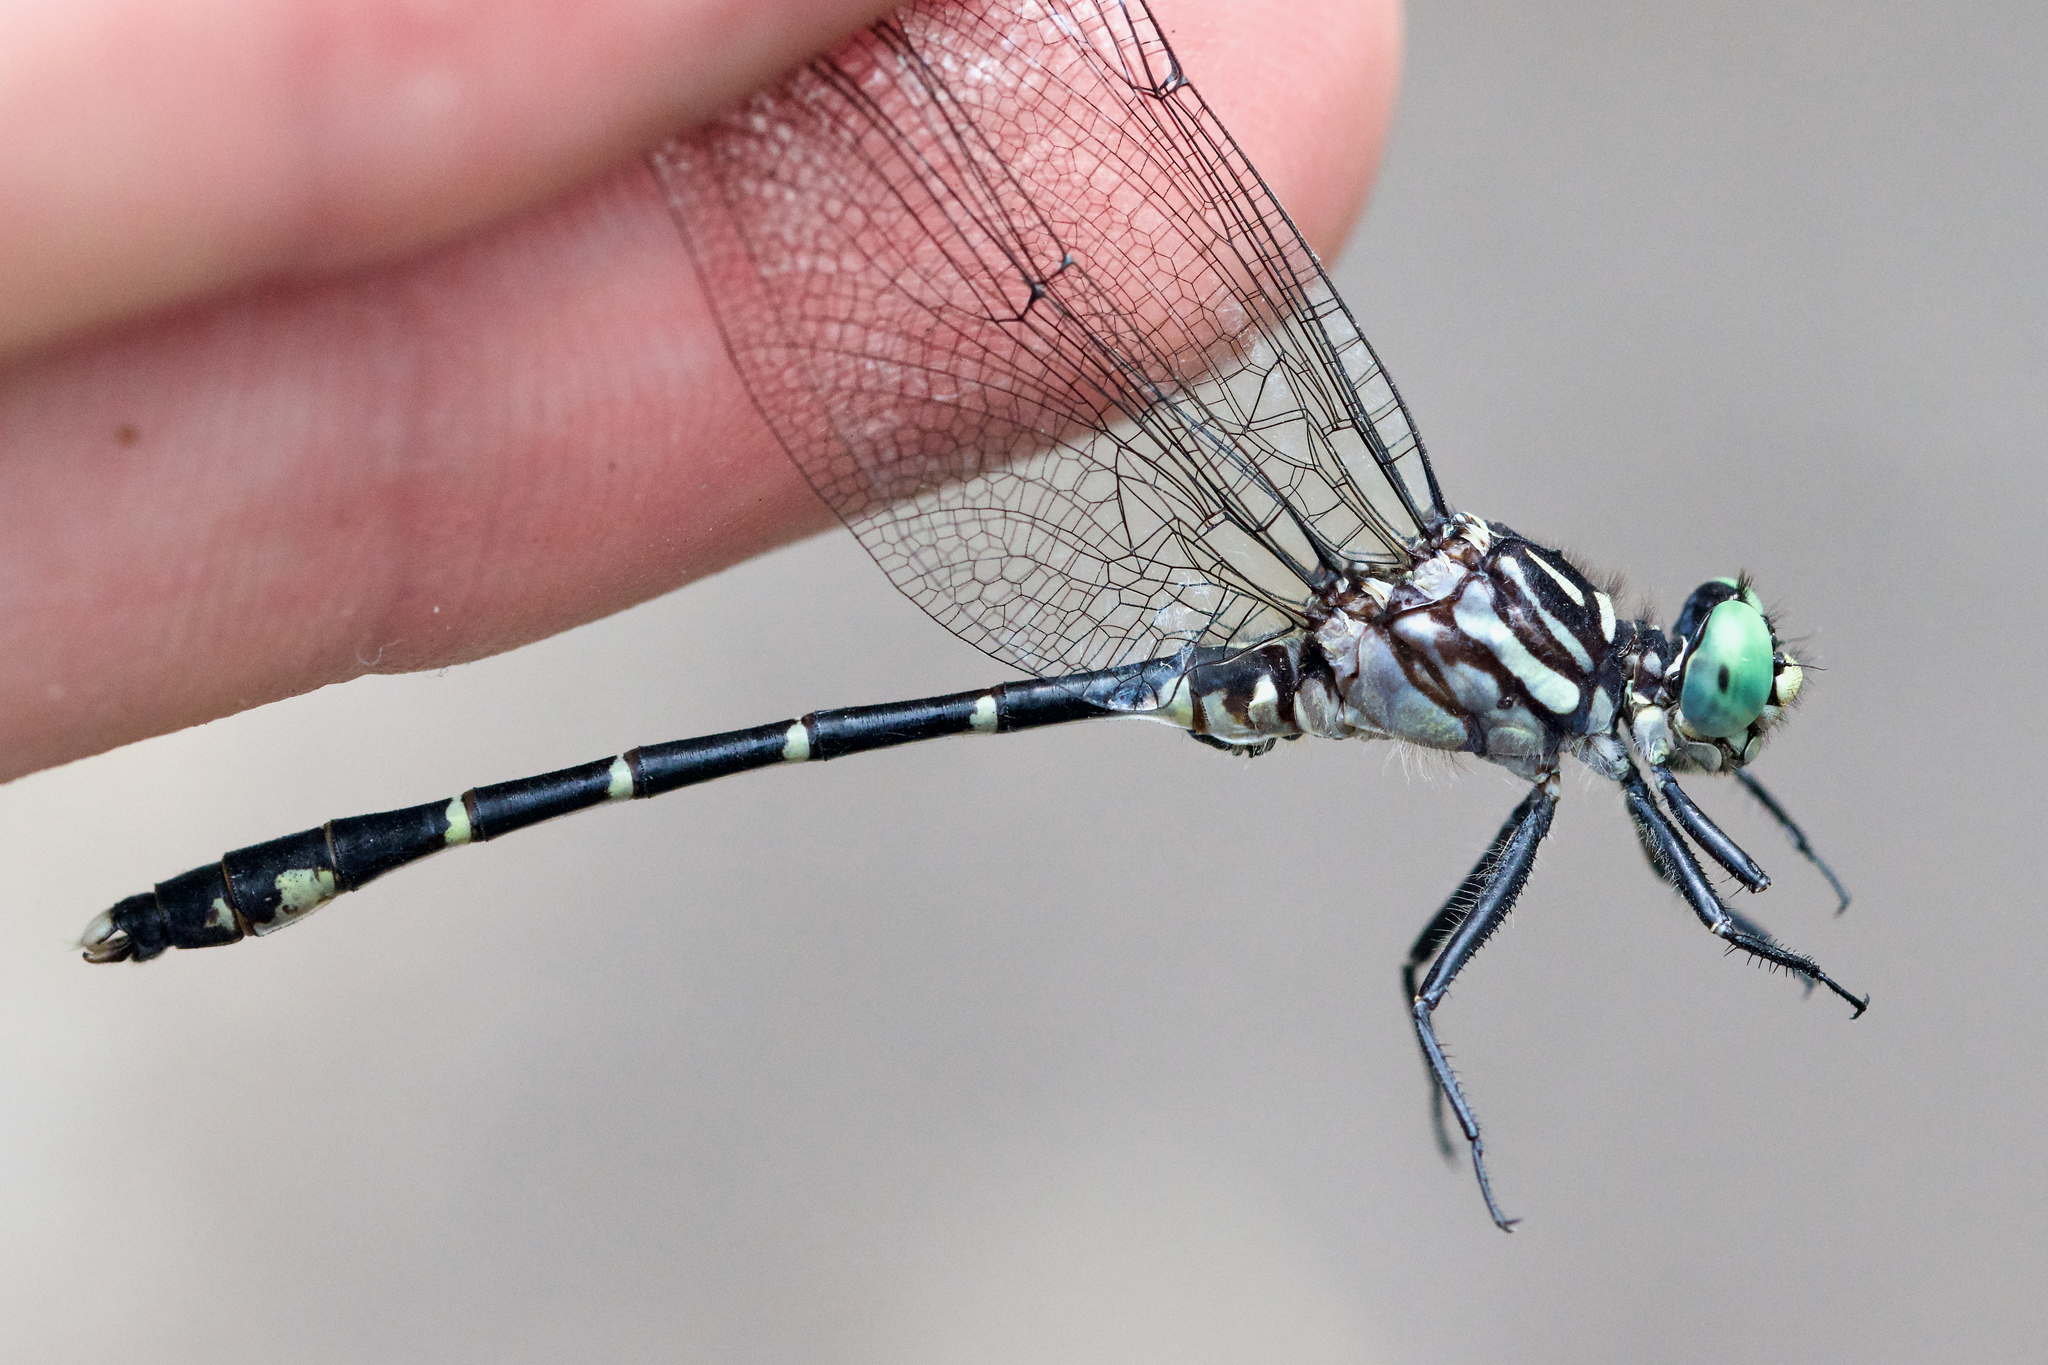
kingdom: Animalia
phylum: Arthropoda
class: Insecta
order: Odonata
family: Gomphidae
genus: Stylogomphus
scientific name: Stylogomphus albistylus
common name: Eastern least clubtail
